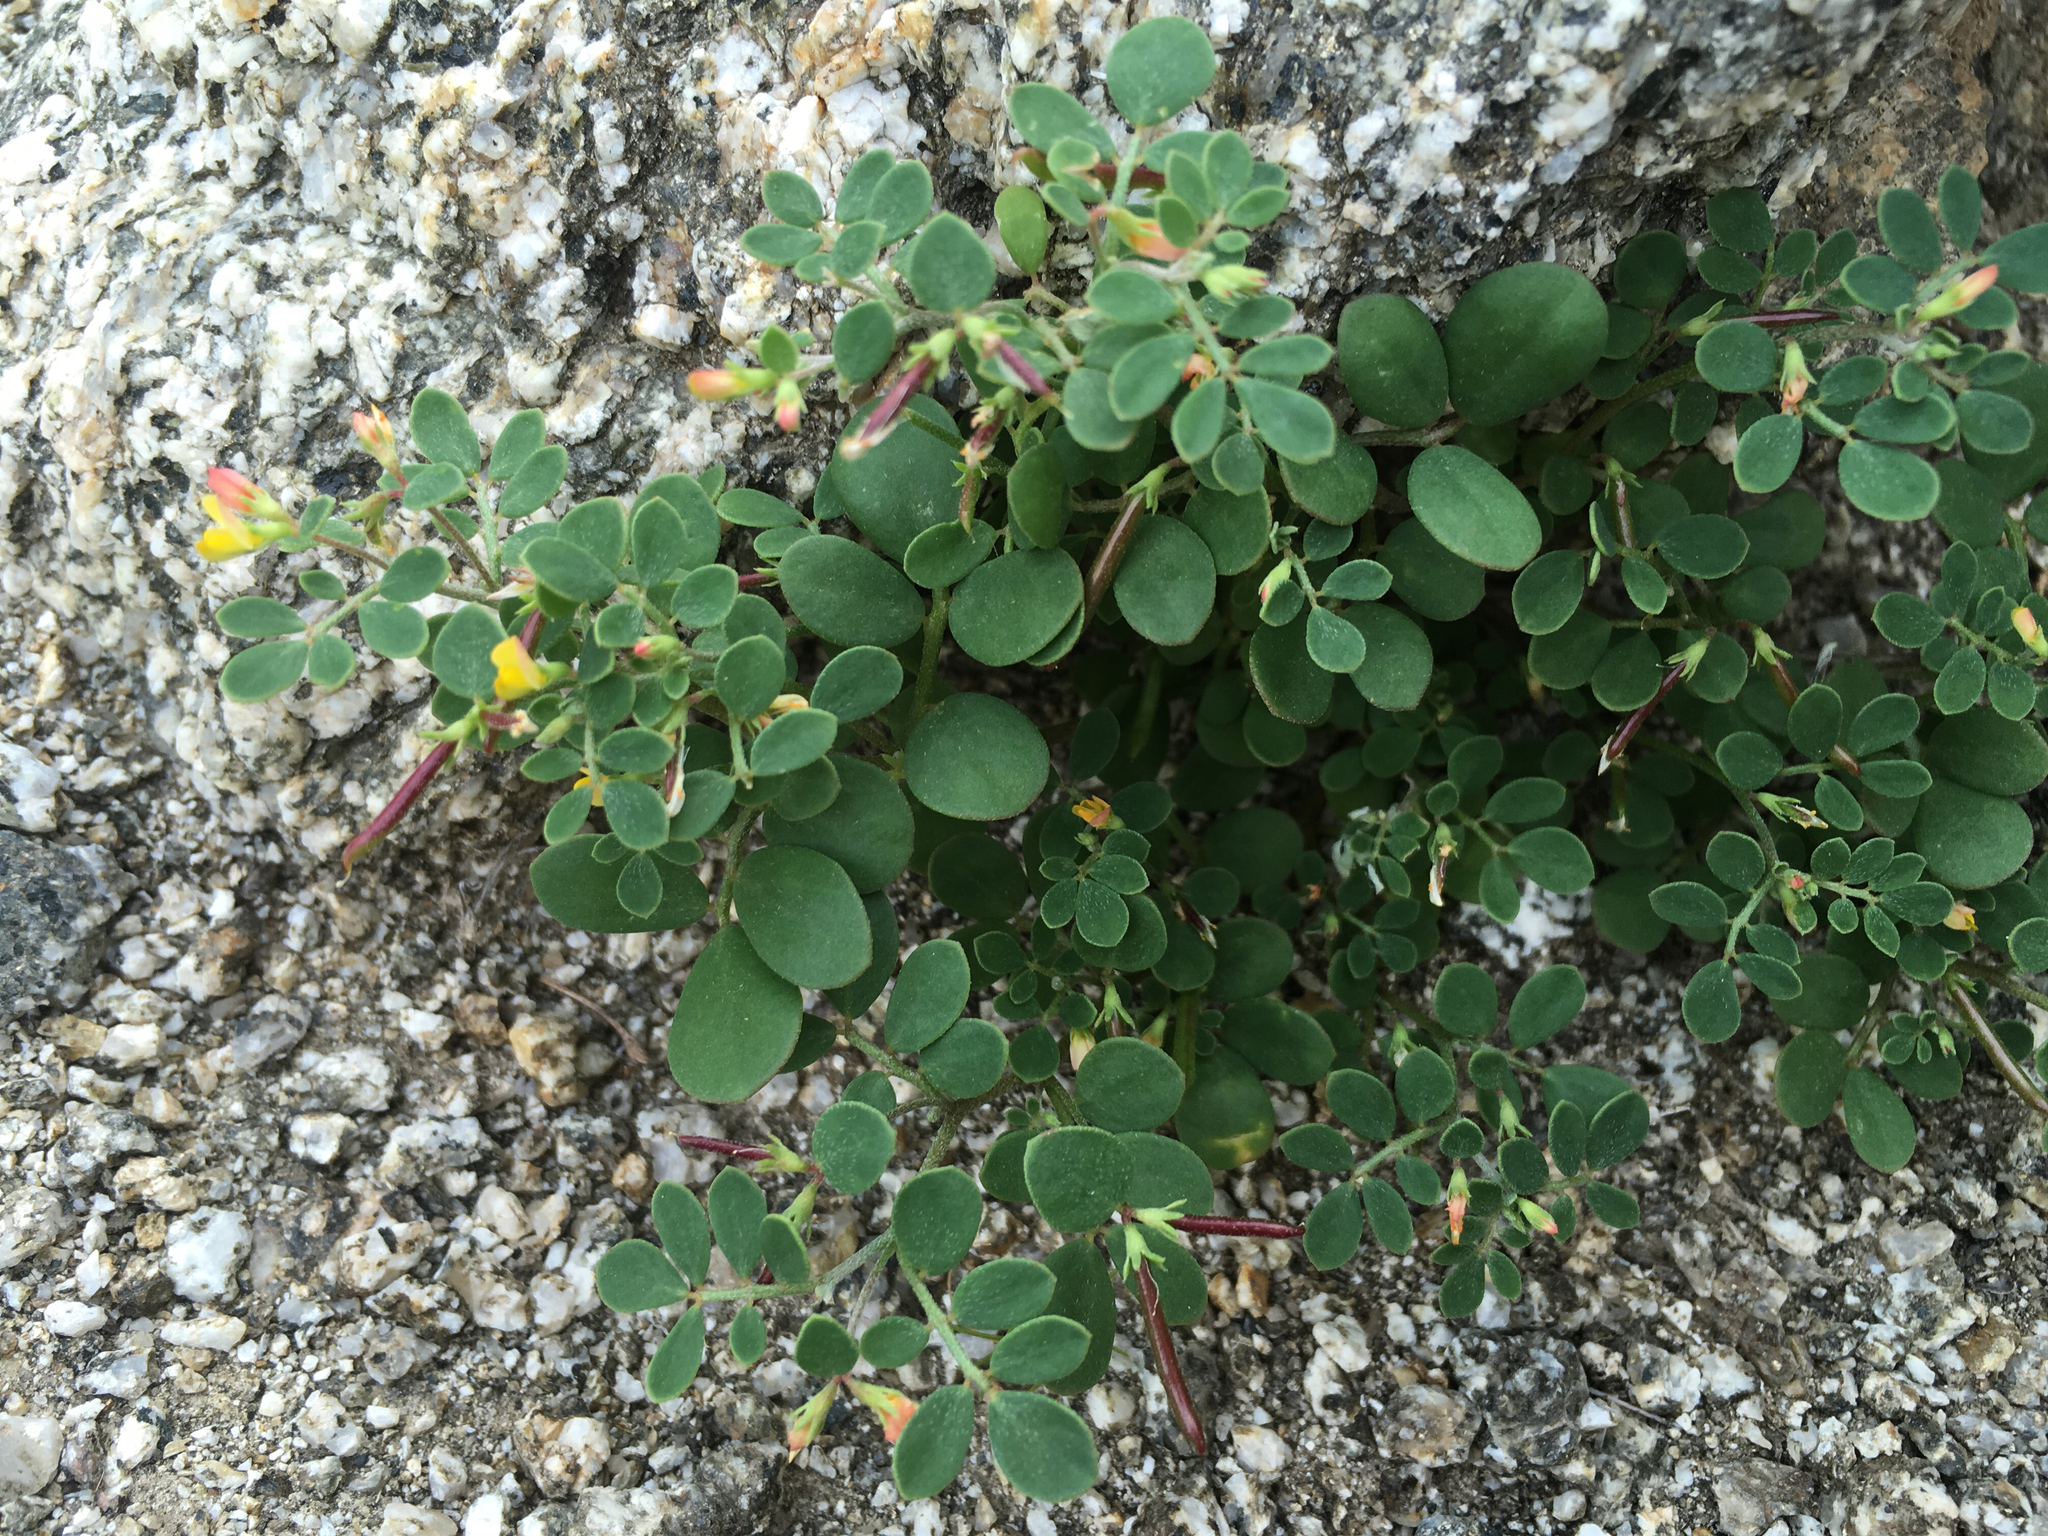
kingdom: Plantae
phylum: Tracheophyta
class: Magnoliopsida
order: Fabales
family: Fabaceae
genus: Acmispon
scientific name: Acmispon maritimus
